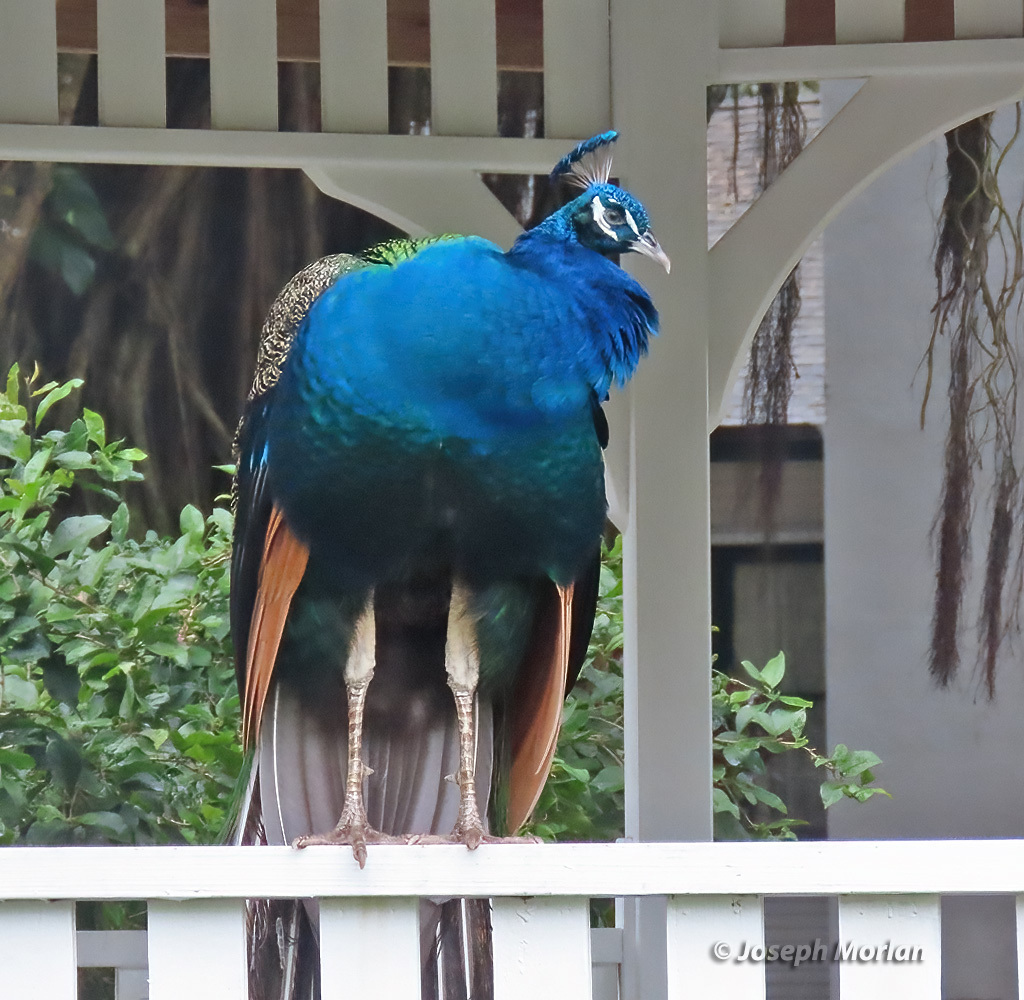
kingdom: Animalia
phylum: Chordata
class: Aves
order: Galliformes
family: Phasianidae
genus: Pavo
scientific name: Pavo cristatus
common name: Indian peafowl
